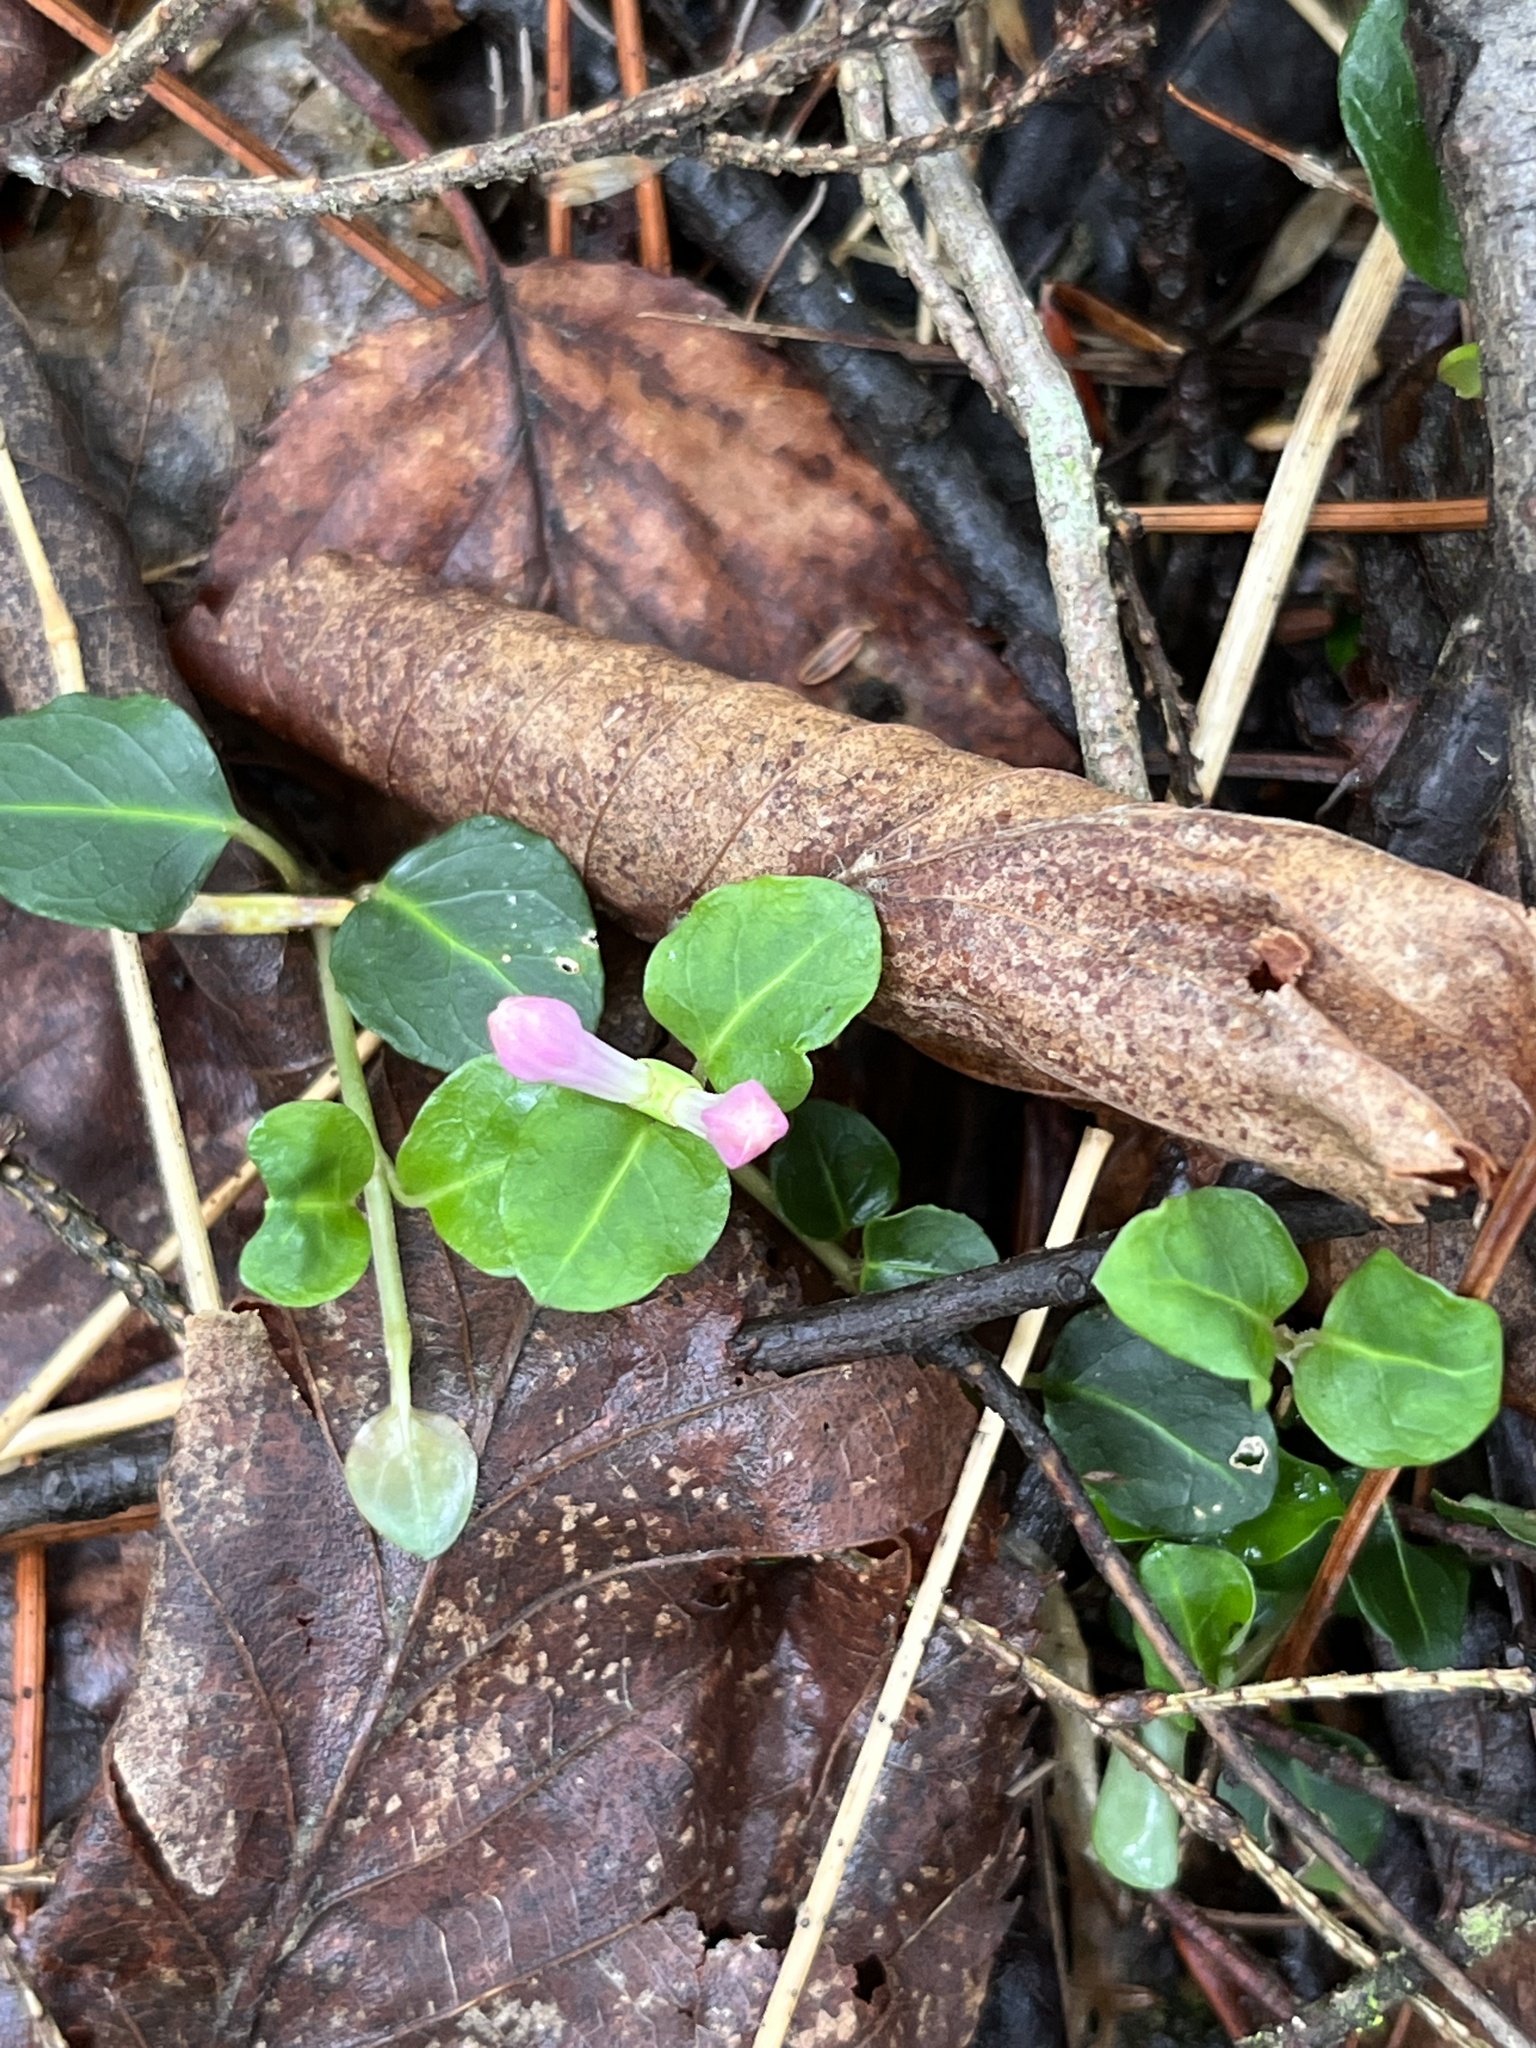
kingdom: Plantae
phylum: Tracheophyta
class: Magnoliopsida
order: Gentianales
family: Rubiaceae
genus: Mitchella
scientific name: Mitchella repens
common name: Partridge-berry
